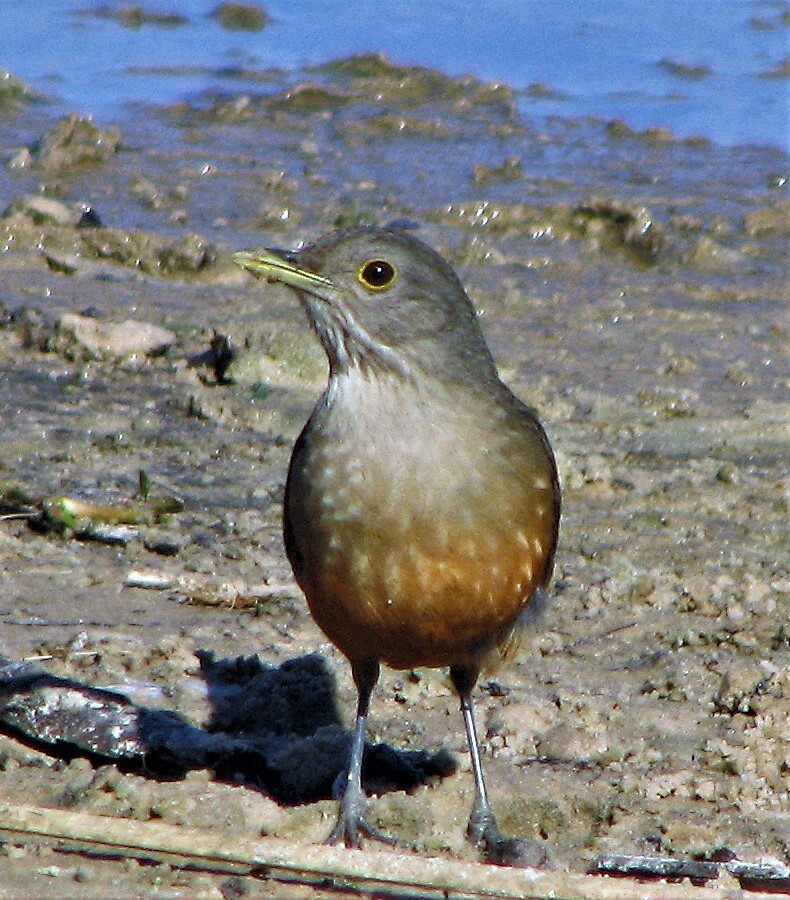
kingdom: Animalia
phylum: Chordata
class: Aves
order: Passeriformes
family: Turdidae
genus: Turdus
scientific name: Turdus rufiventris
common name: Rufous-bellied thrush
